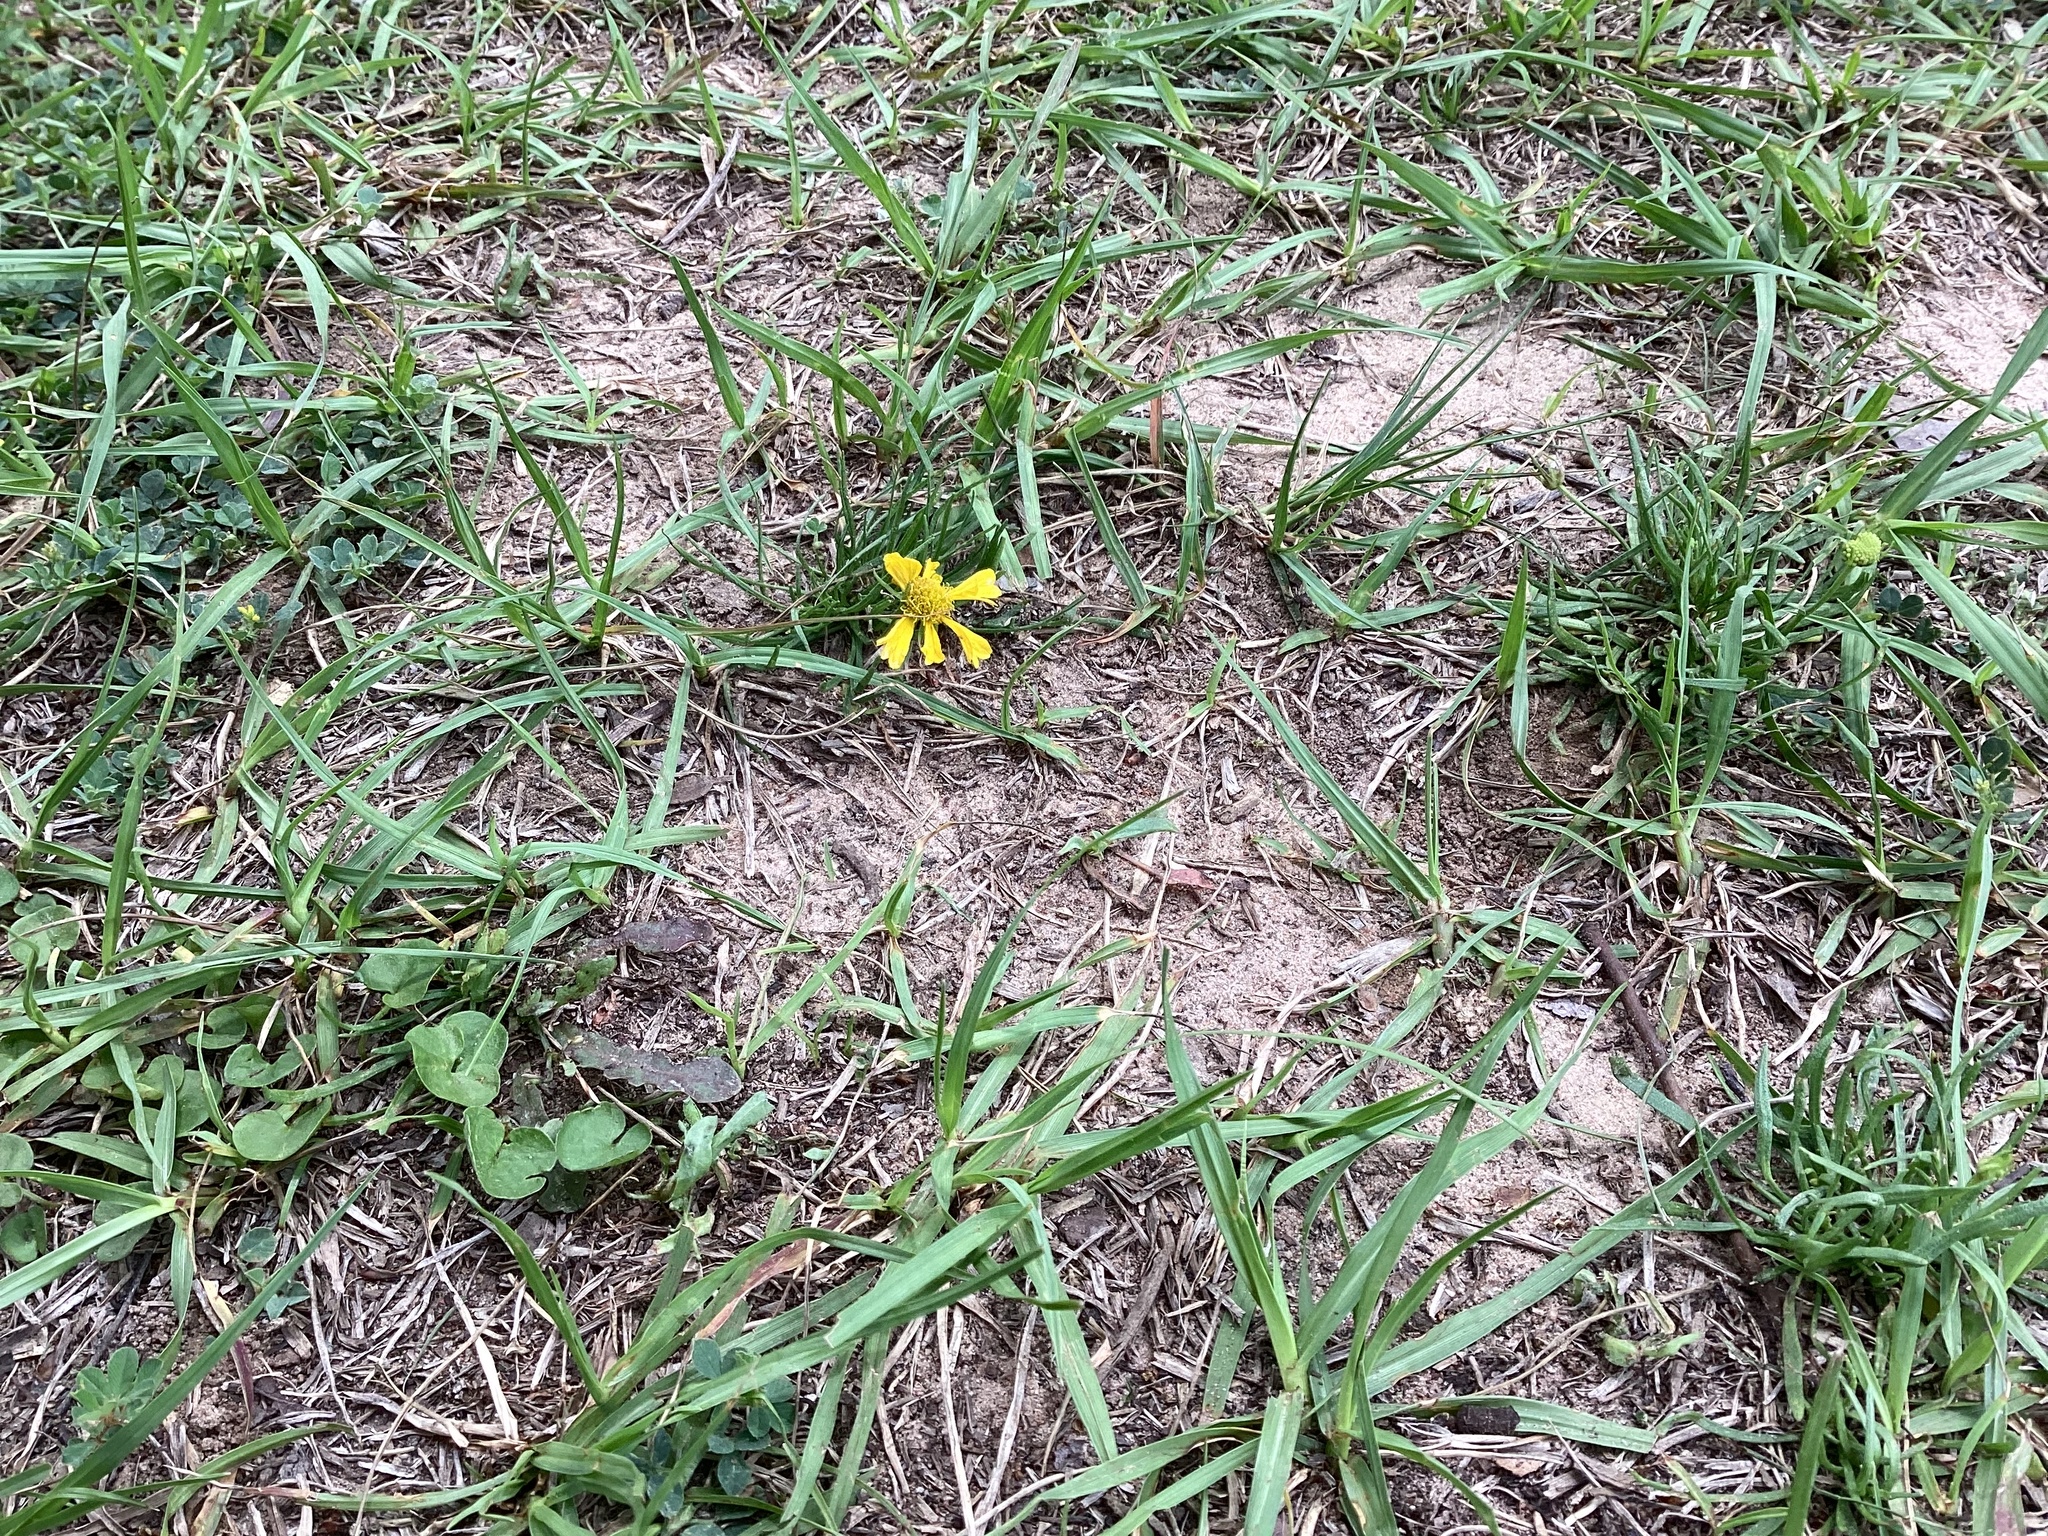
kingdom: Plantae
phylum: Tracheophyta
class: Magnoliopsida
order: Asterales
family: Asteraceae
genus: Helenium
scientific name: Helenium amarum
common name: Bitter sneezeweed
